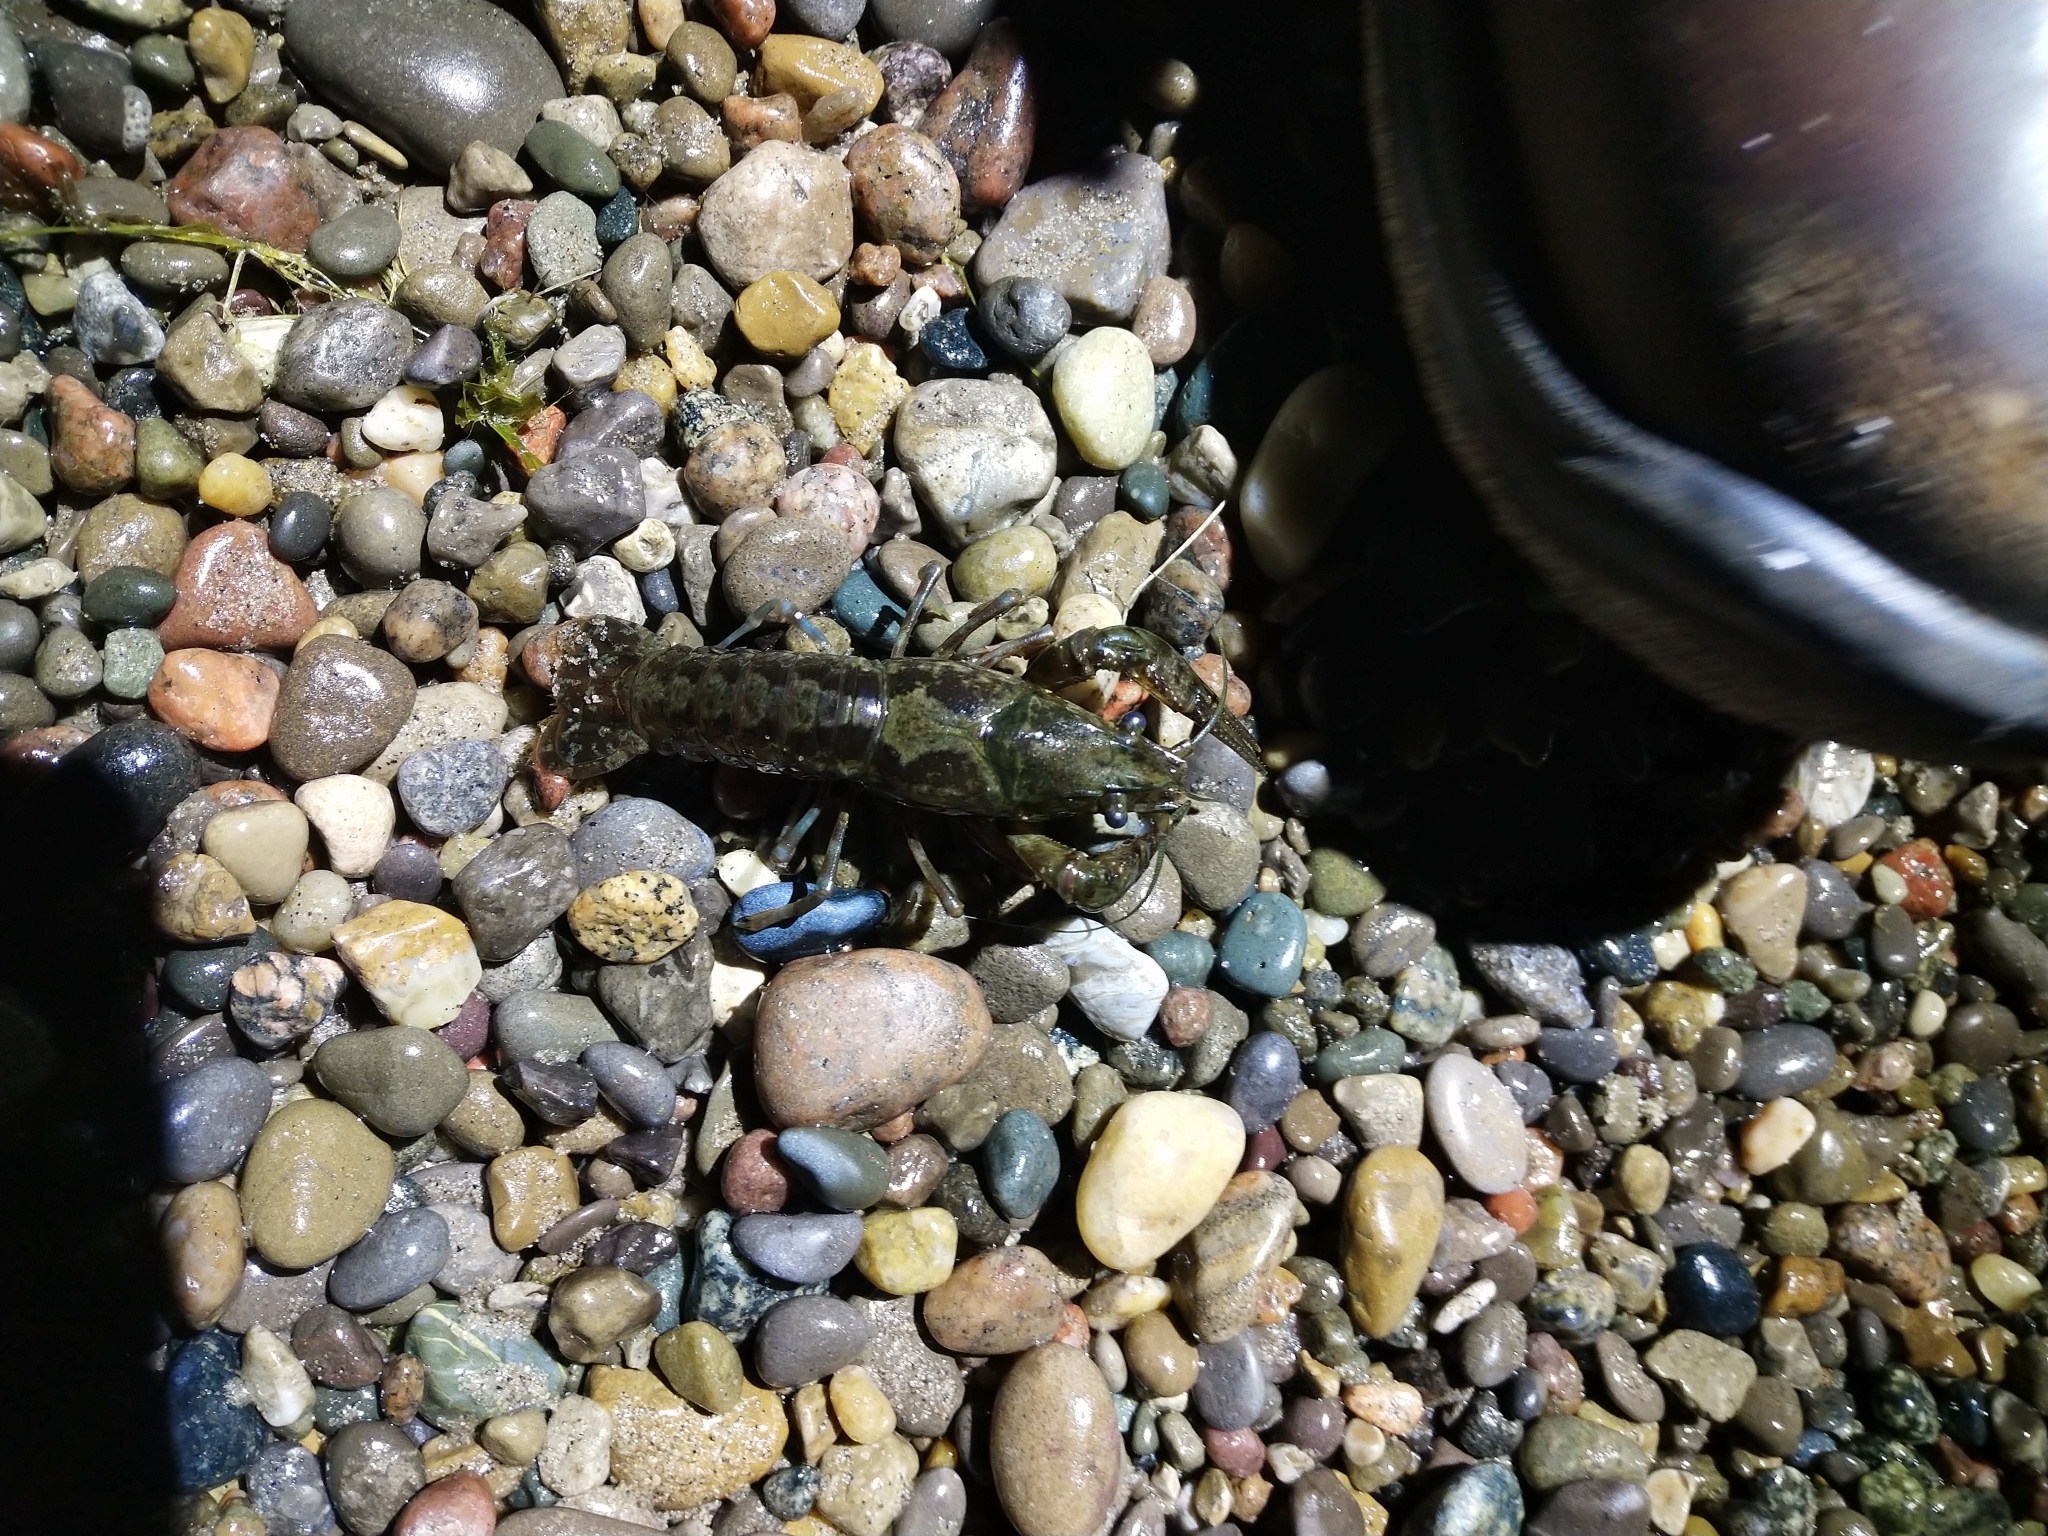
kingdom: Animalia
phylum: Arthropoda
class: Malacostraca
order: Decapoda
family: Cambaridae
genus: Faxonius
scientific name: Faxonius immunis
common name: Calico crayfish
